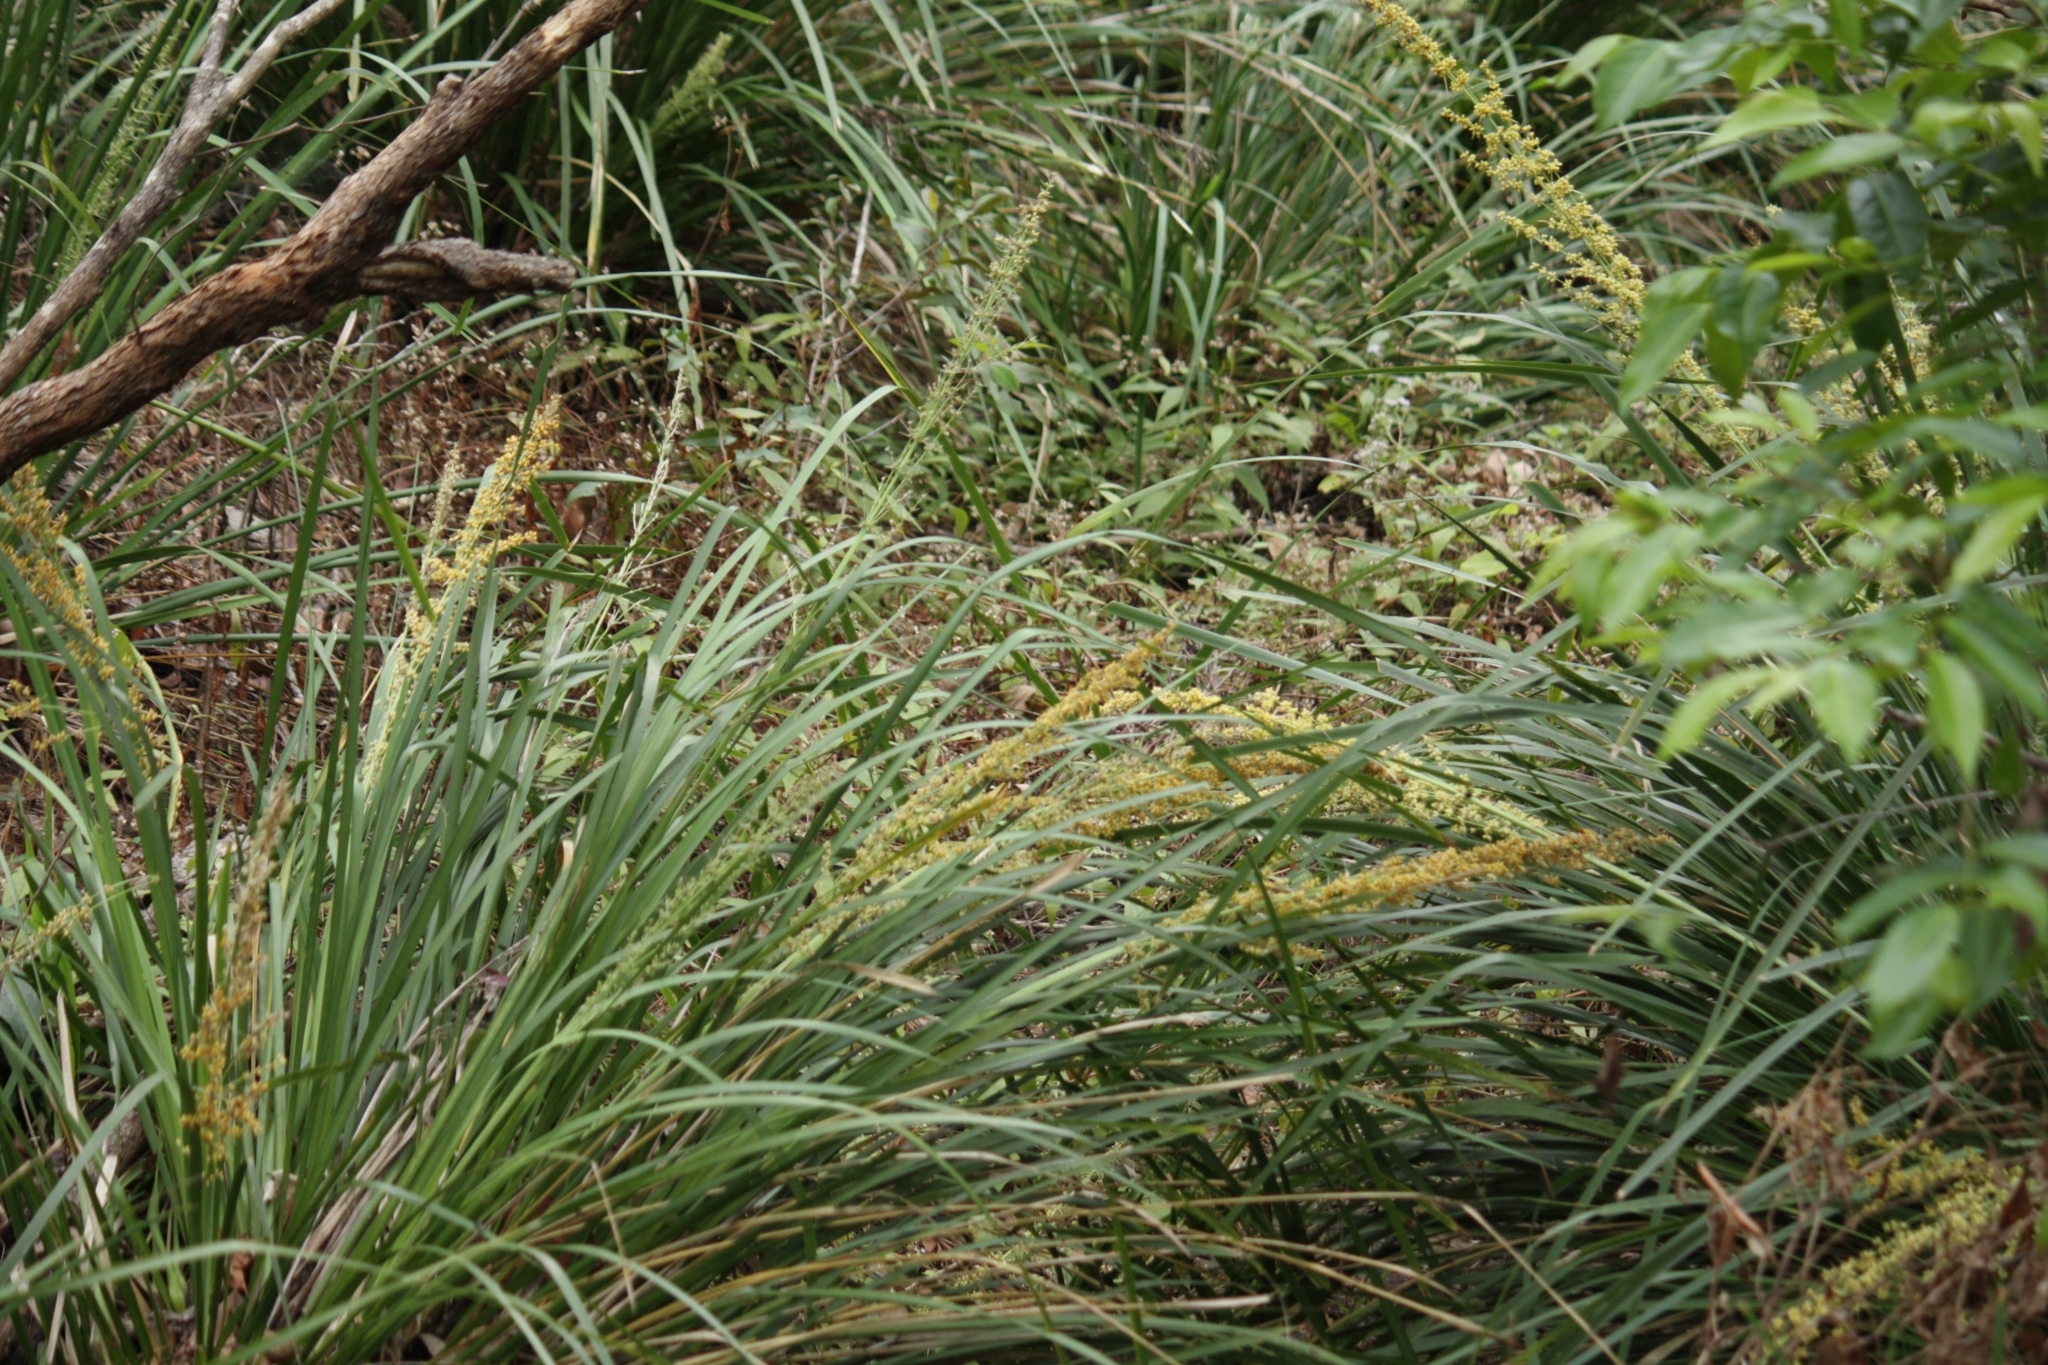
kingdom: Plantae
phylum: Tracheophyta
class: Liliopsida
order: Asparagales
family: Asparagaceae
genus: Lomandra
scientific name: Lomandra longifolia
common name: Longleaf mat-rush
